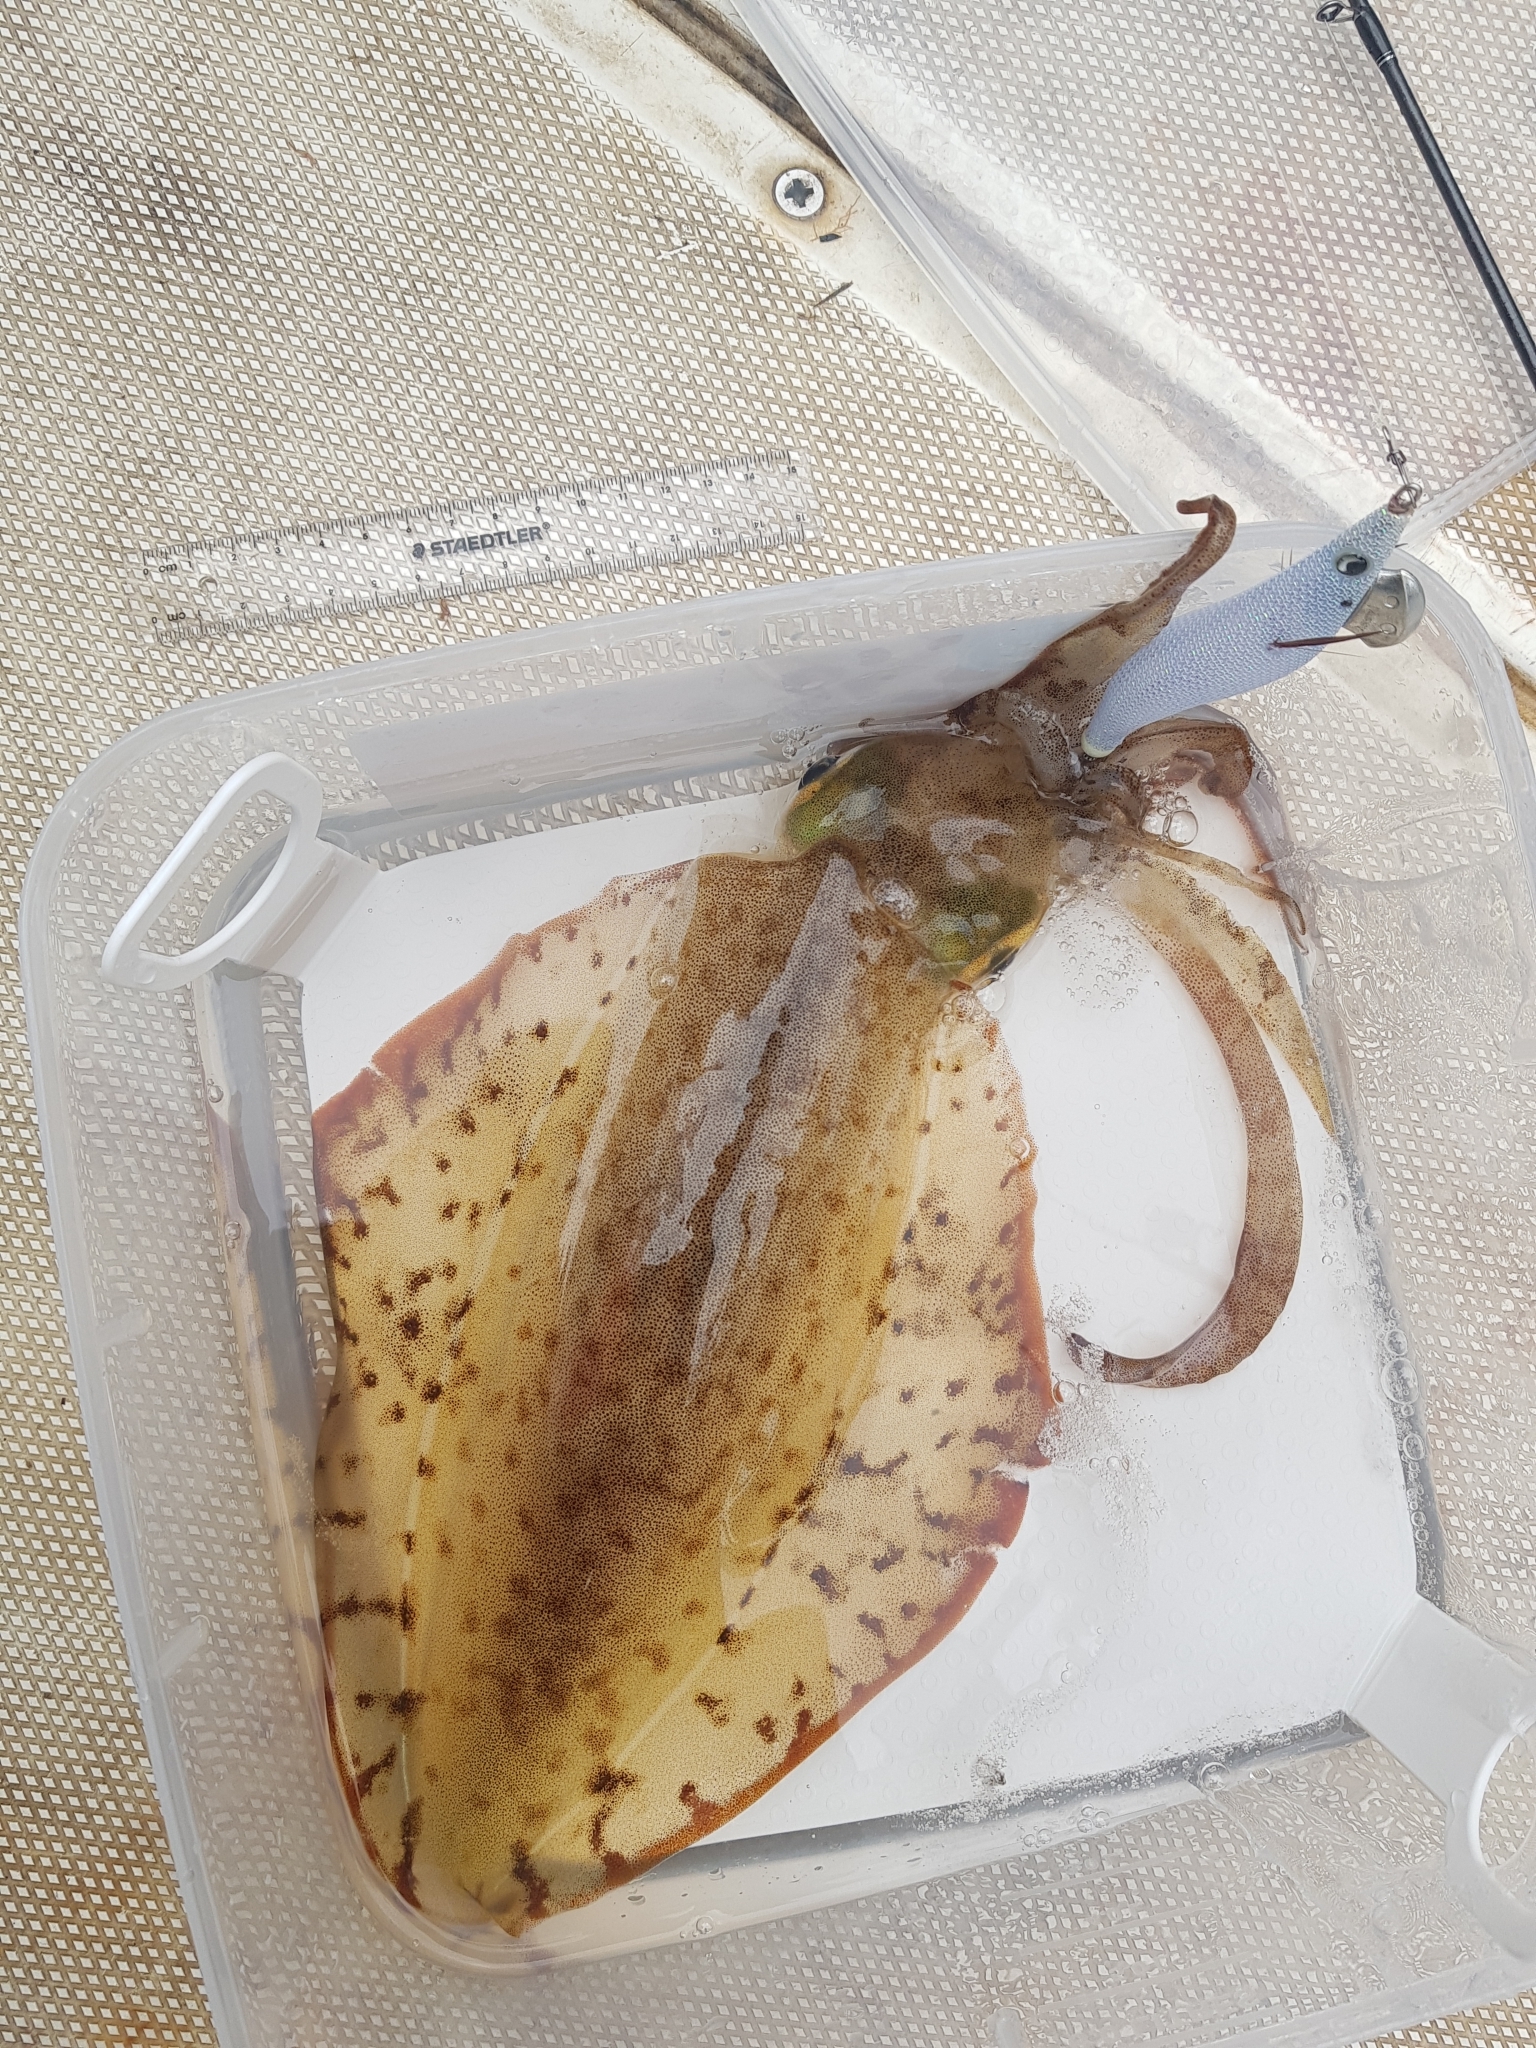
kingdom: Animalia
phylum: Mollusca
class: Cephalopoda
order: Myopsida
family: Loliginidae
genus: Sepioteuthis
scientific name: Sepioteuthis australis
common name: Southern reef squid
